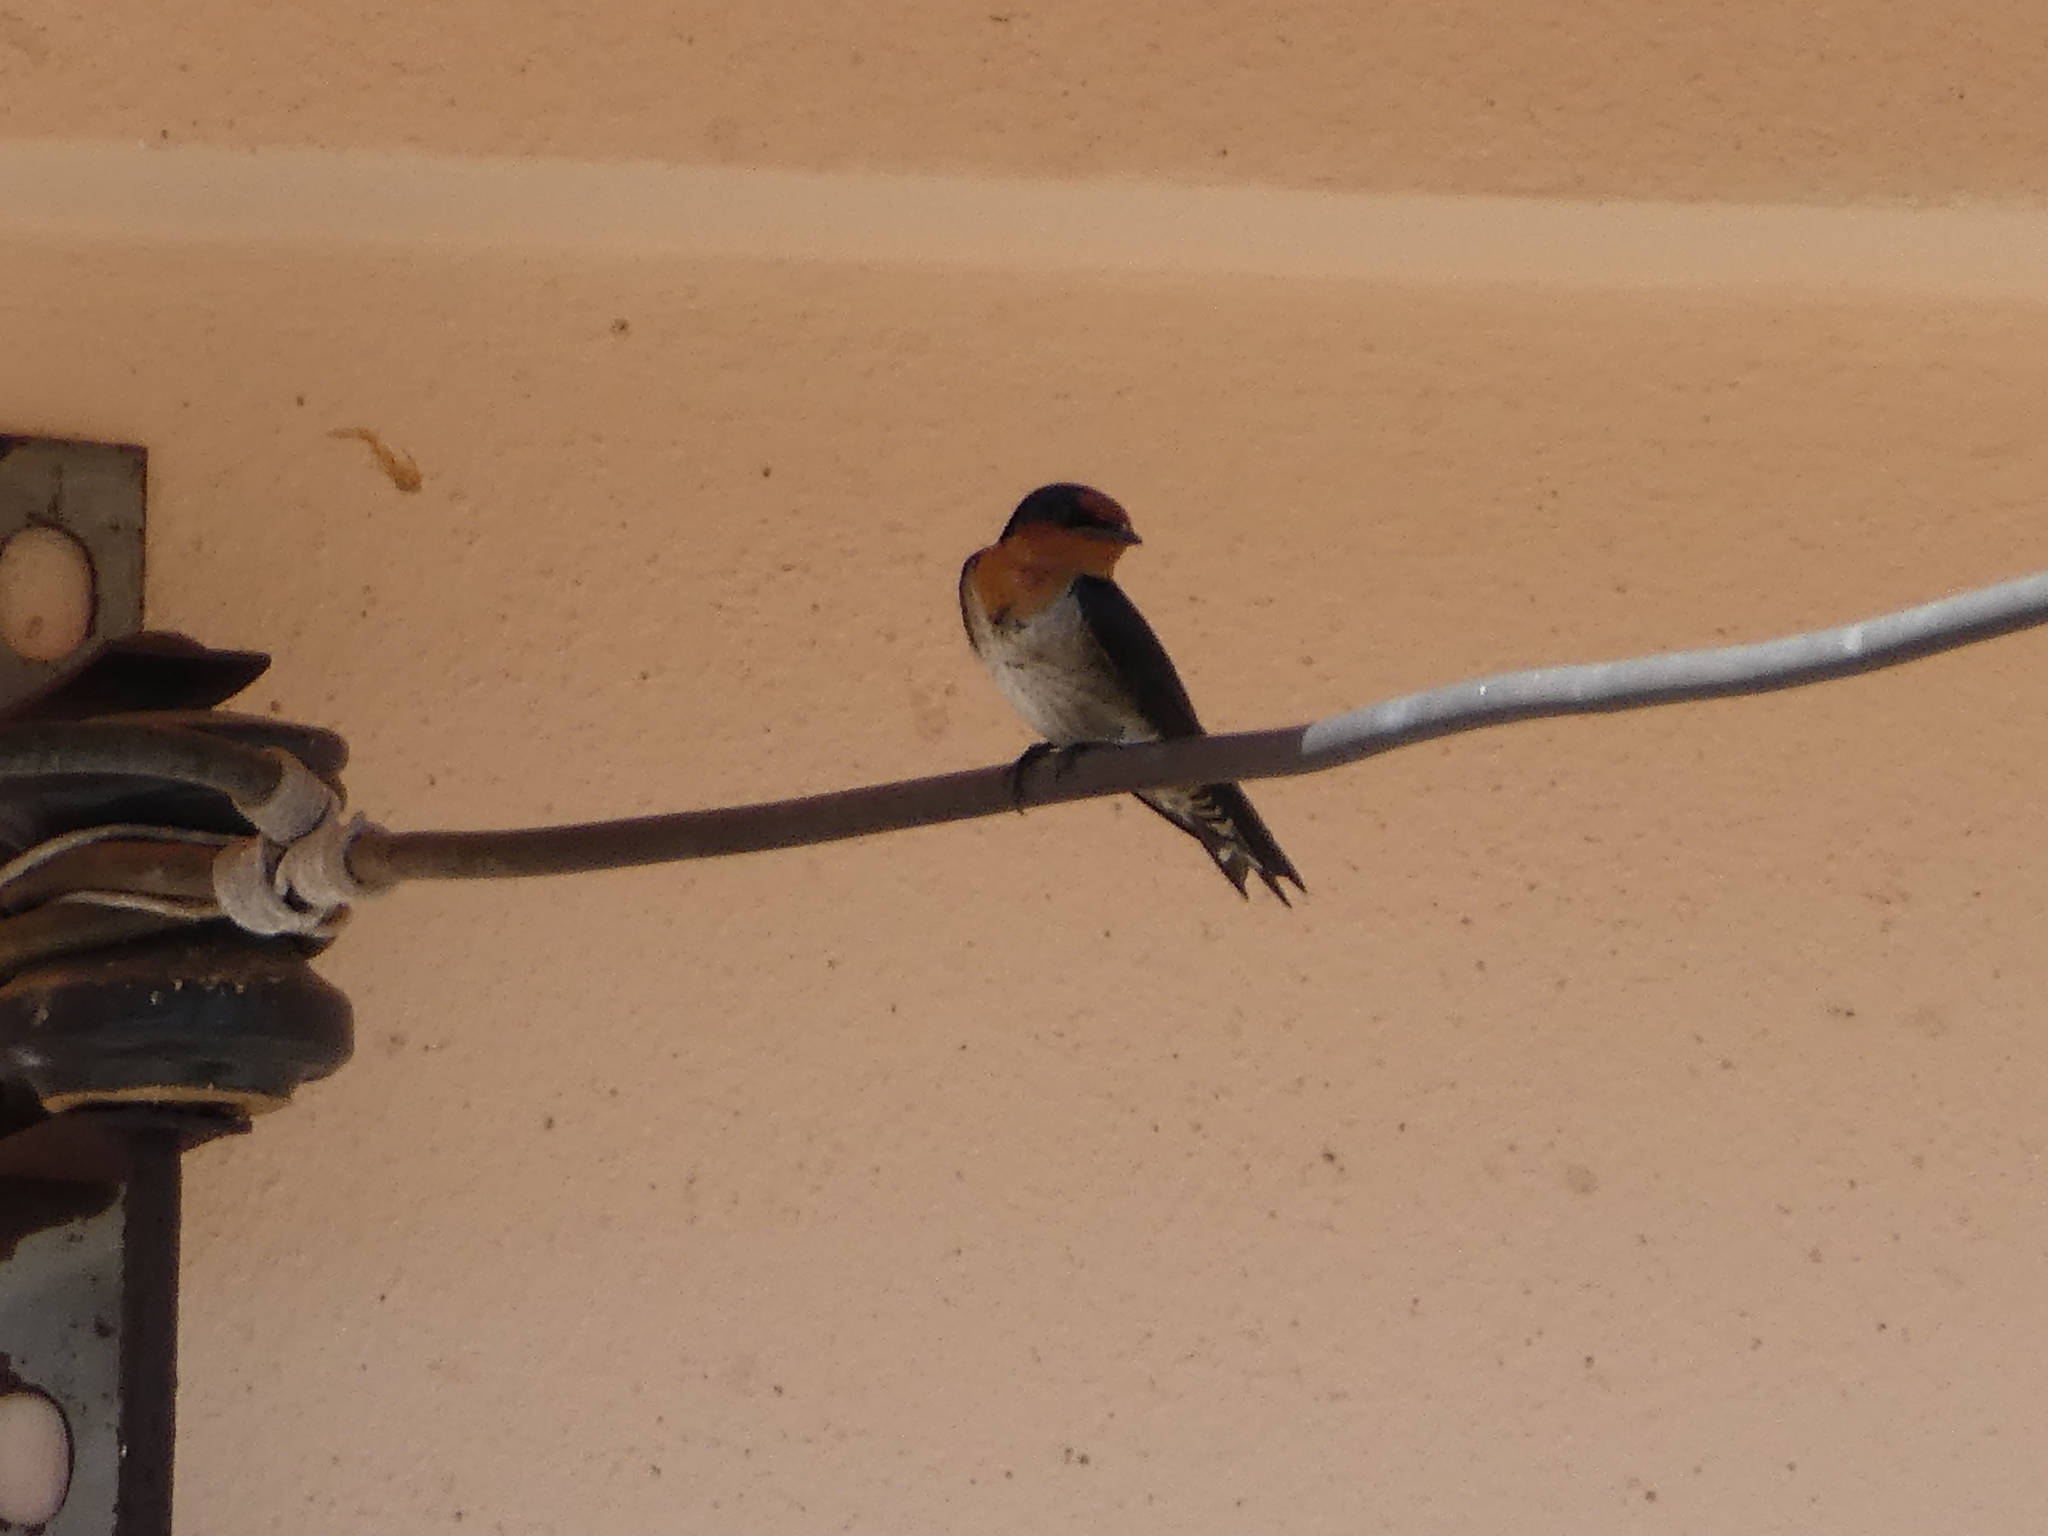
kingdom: Animalia
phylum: Chordata
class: Aves
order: Passeriformes
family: Hirundinidae
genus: Hirundo
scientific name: Hirundo tahitica
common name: Pacific swallow
